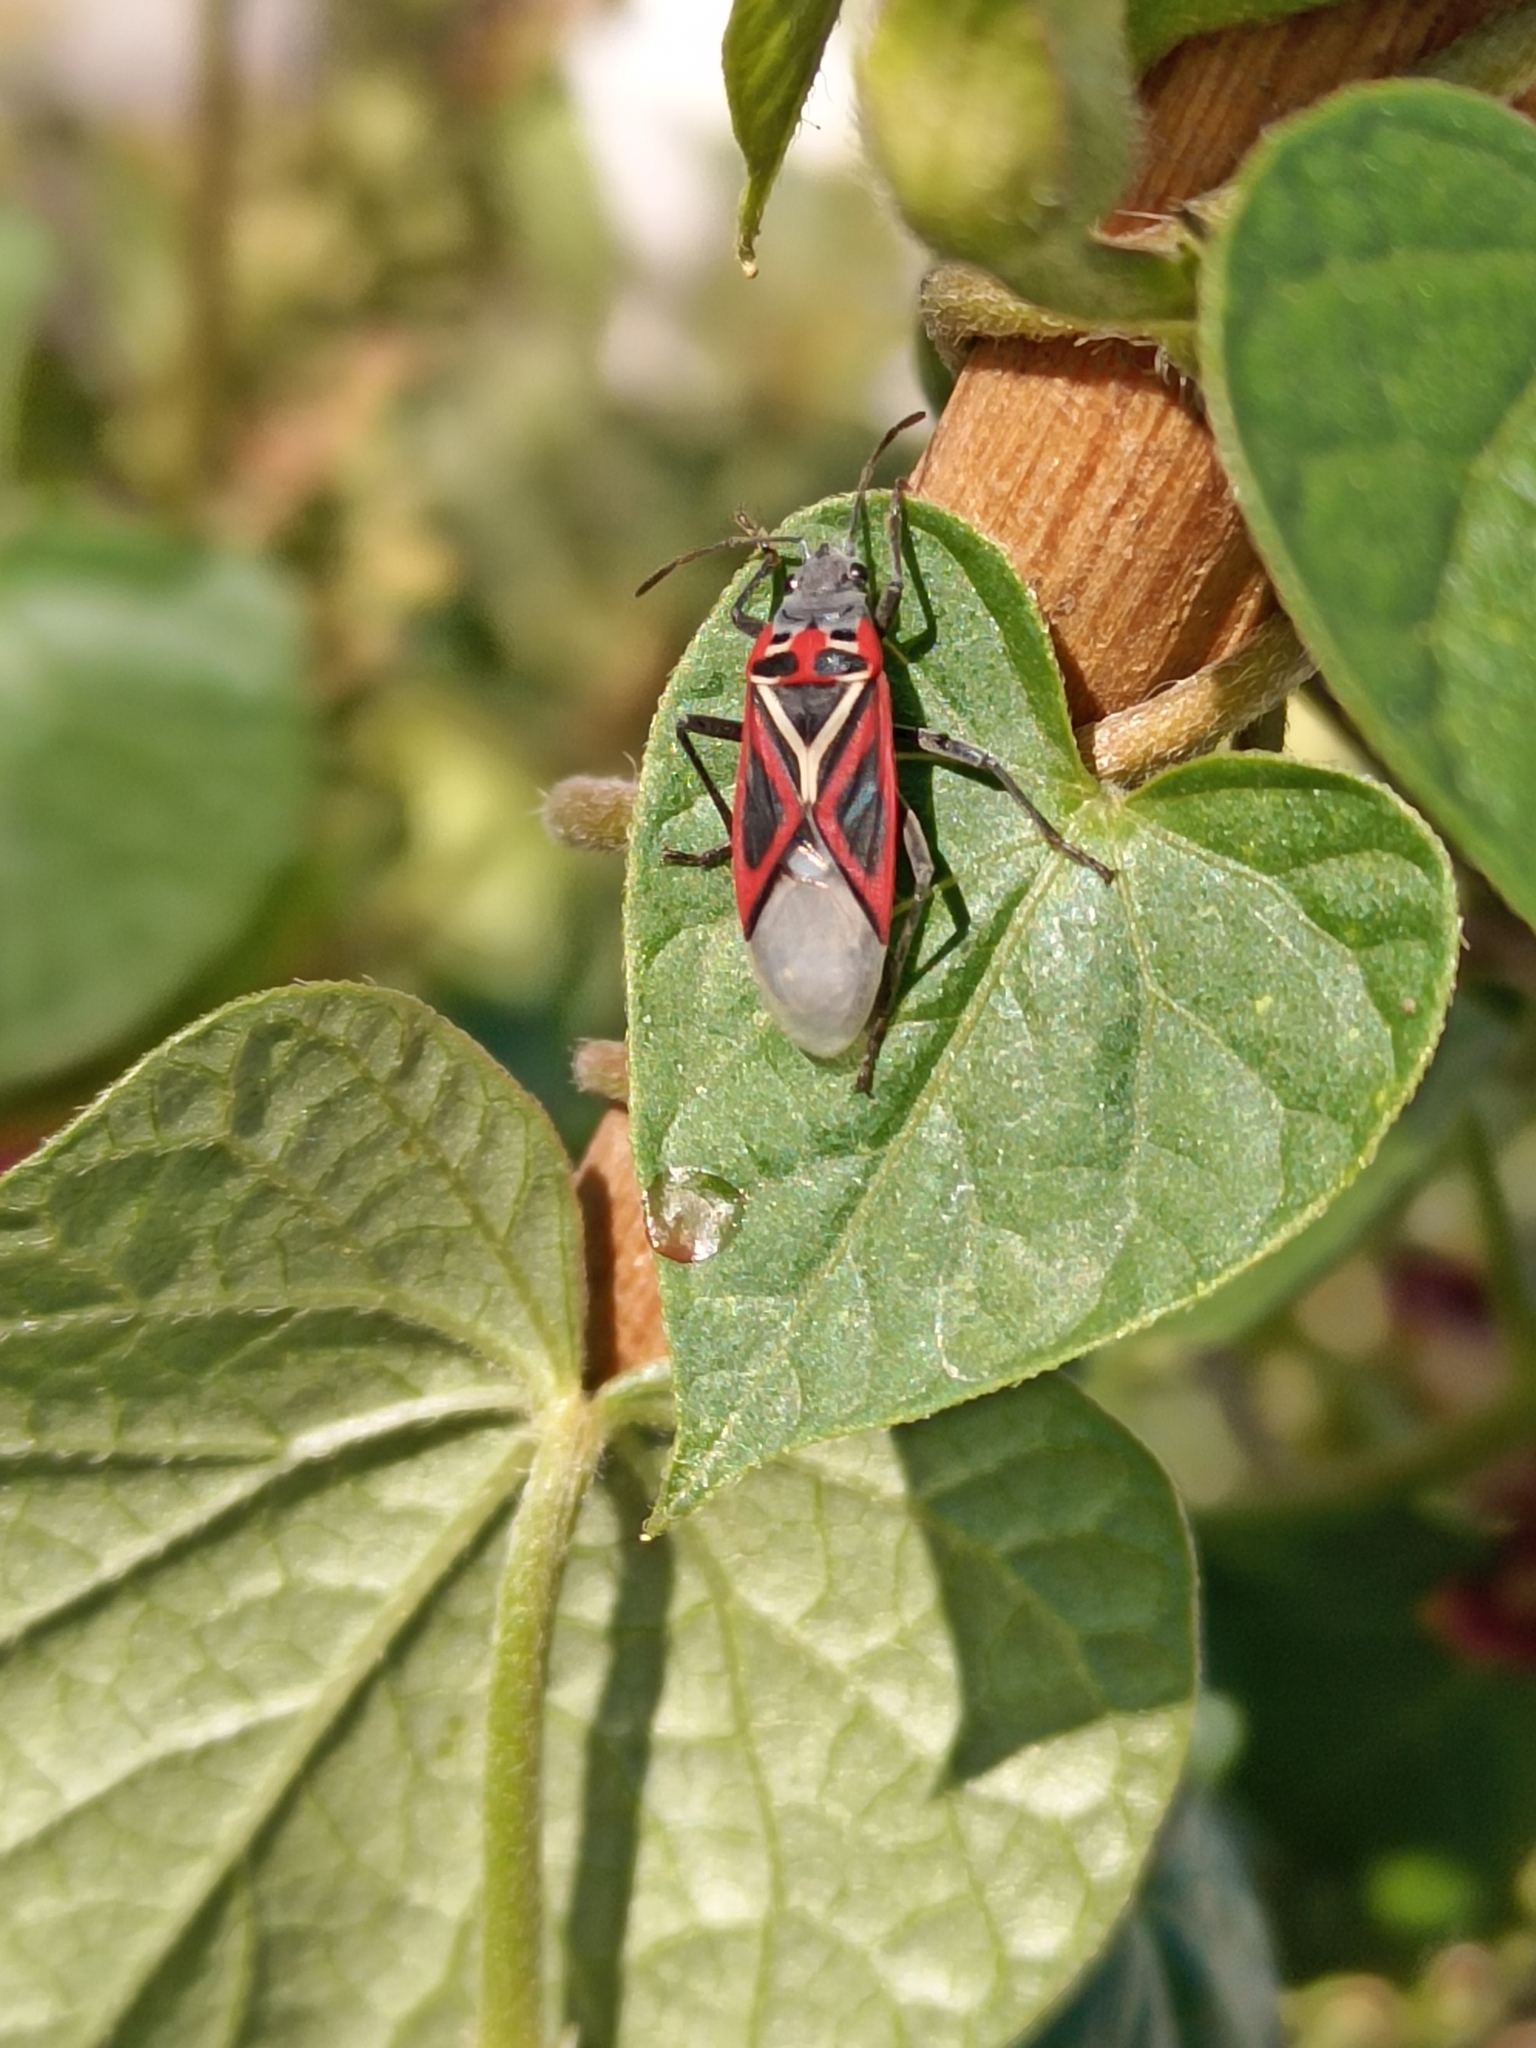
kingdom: Animalia
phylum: Arthropoda
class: Insecta
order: Hemiptera
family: Lygaeidae
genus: Anochrostomus
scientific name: Anochrostomus formosus
